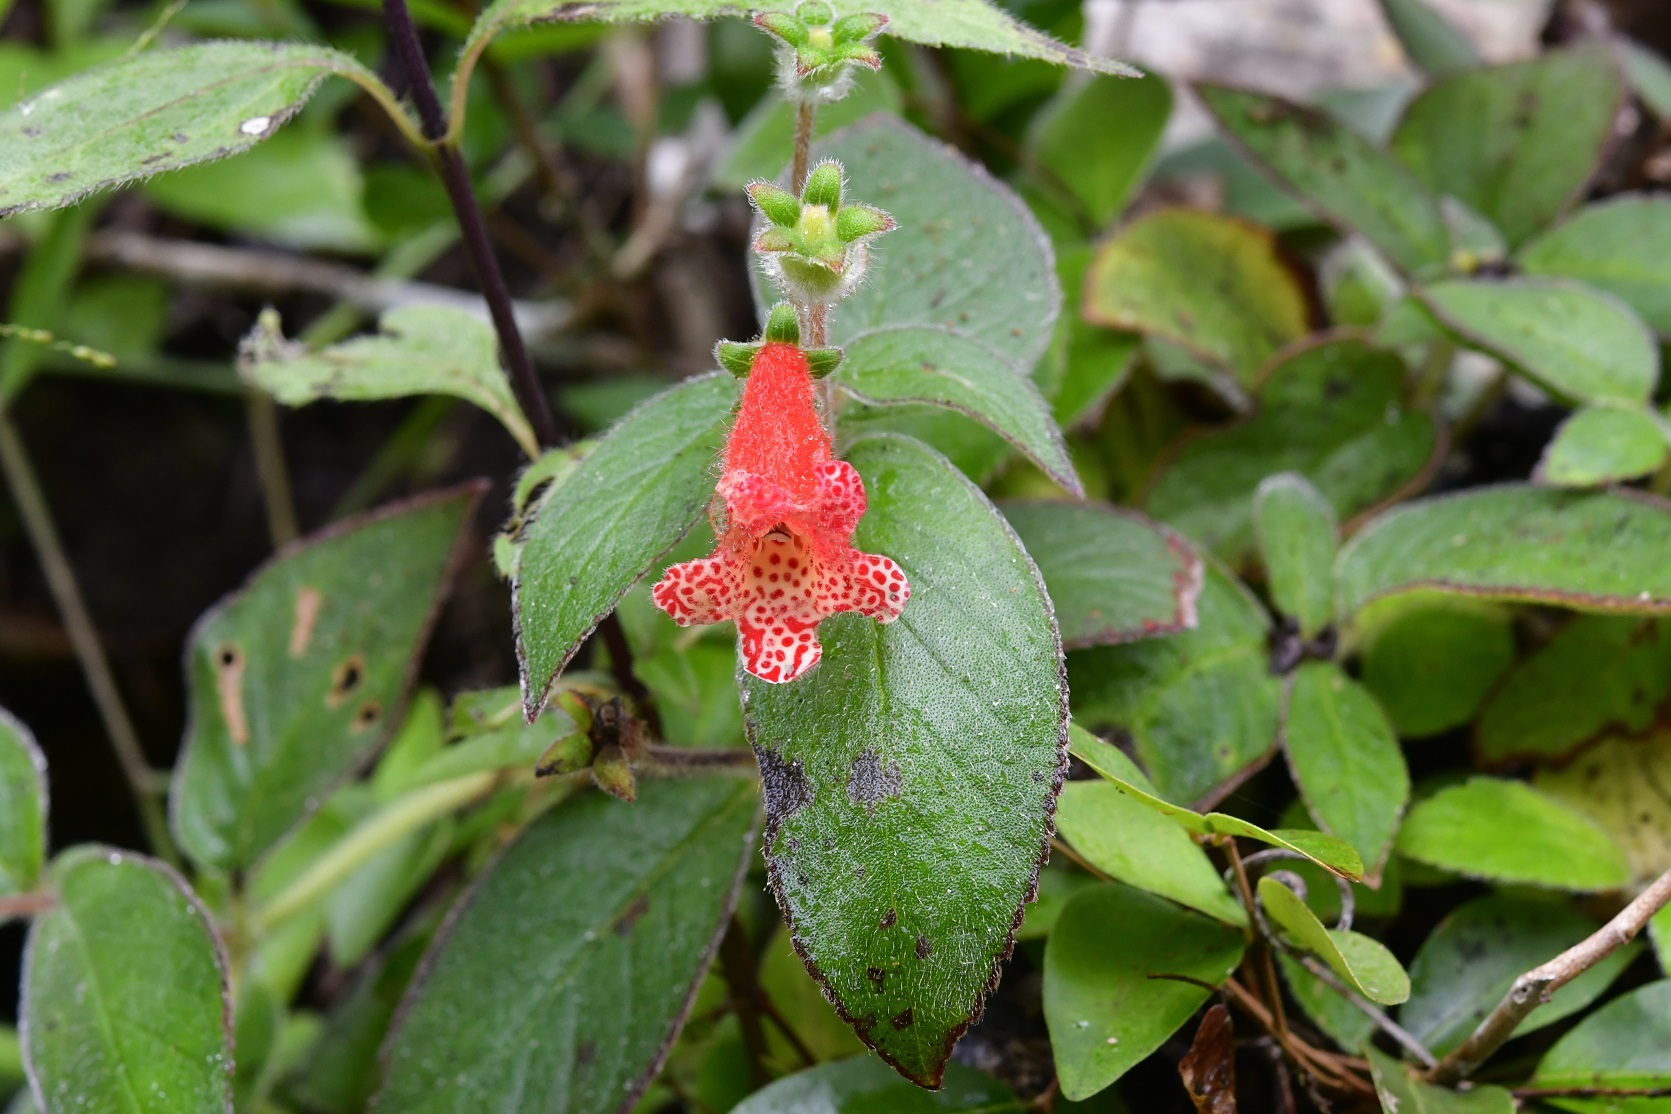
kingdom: Plantae
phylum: Tracheophyta
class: Magnoliopsida
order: Lamiales
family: Gesneriaceae
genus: Kohleria
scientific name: Kohleria rugata
